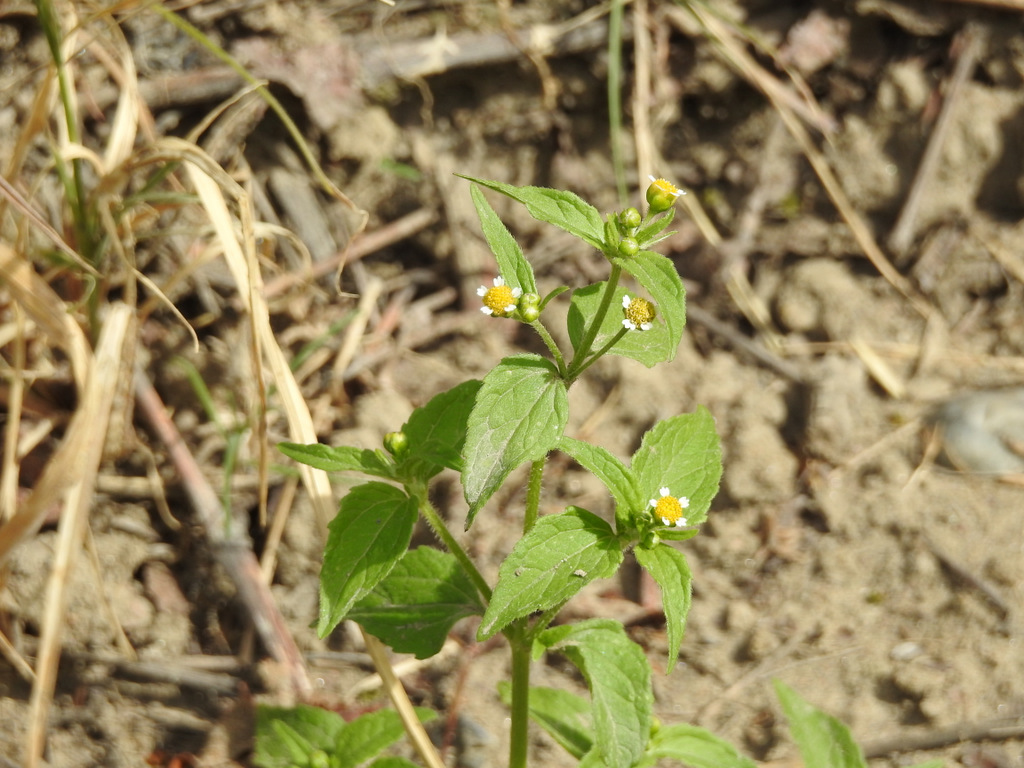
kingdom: Plantae
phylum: Tracheophyta
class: Magnoliopsida
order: Asterales
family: Asteraceae
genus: Galinsoga
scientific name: Galinsoga parviflora
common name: Gallant soldier
